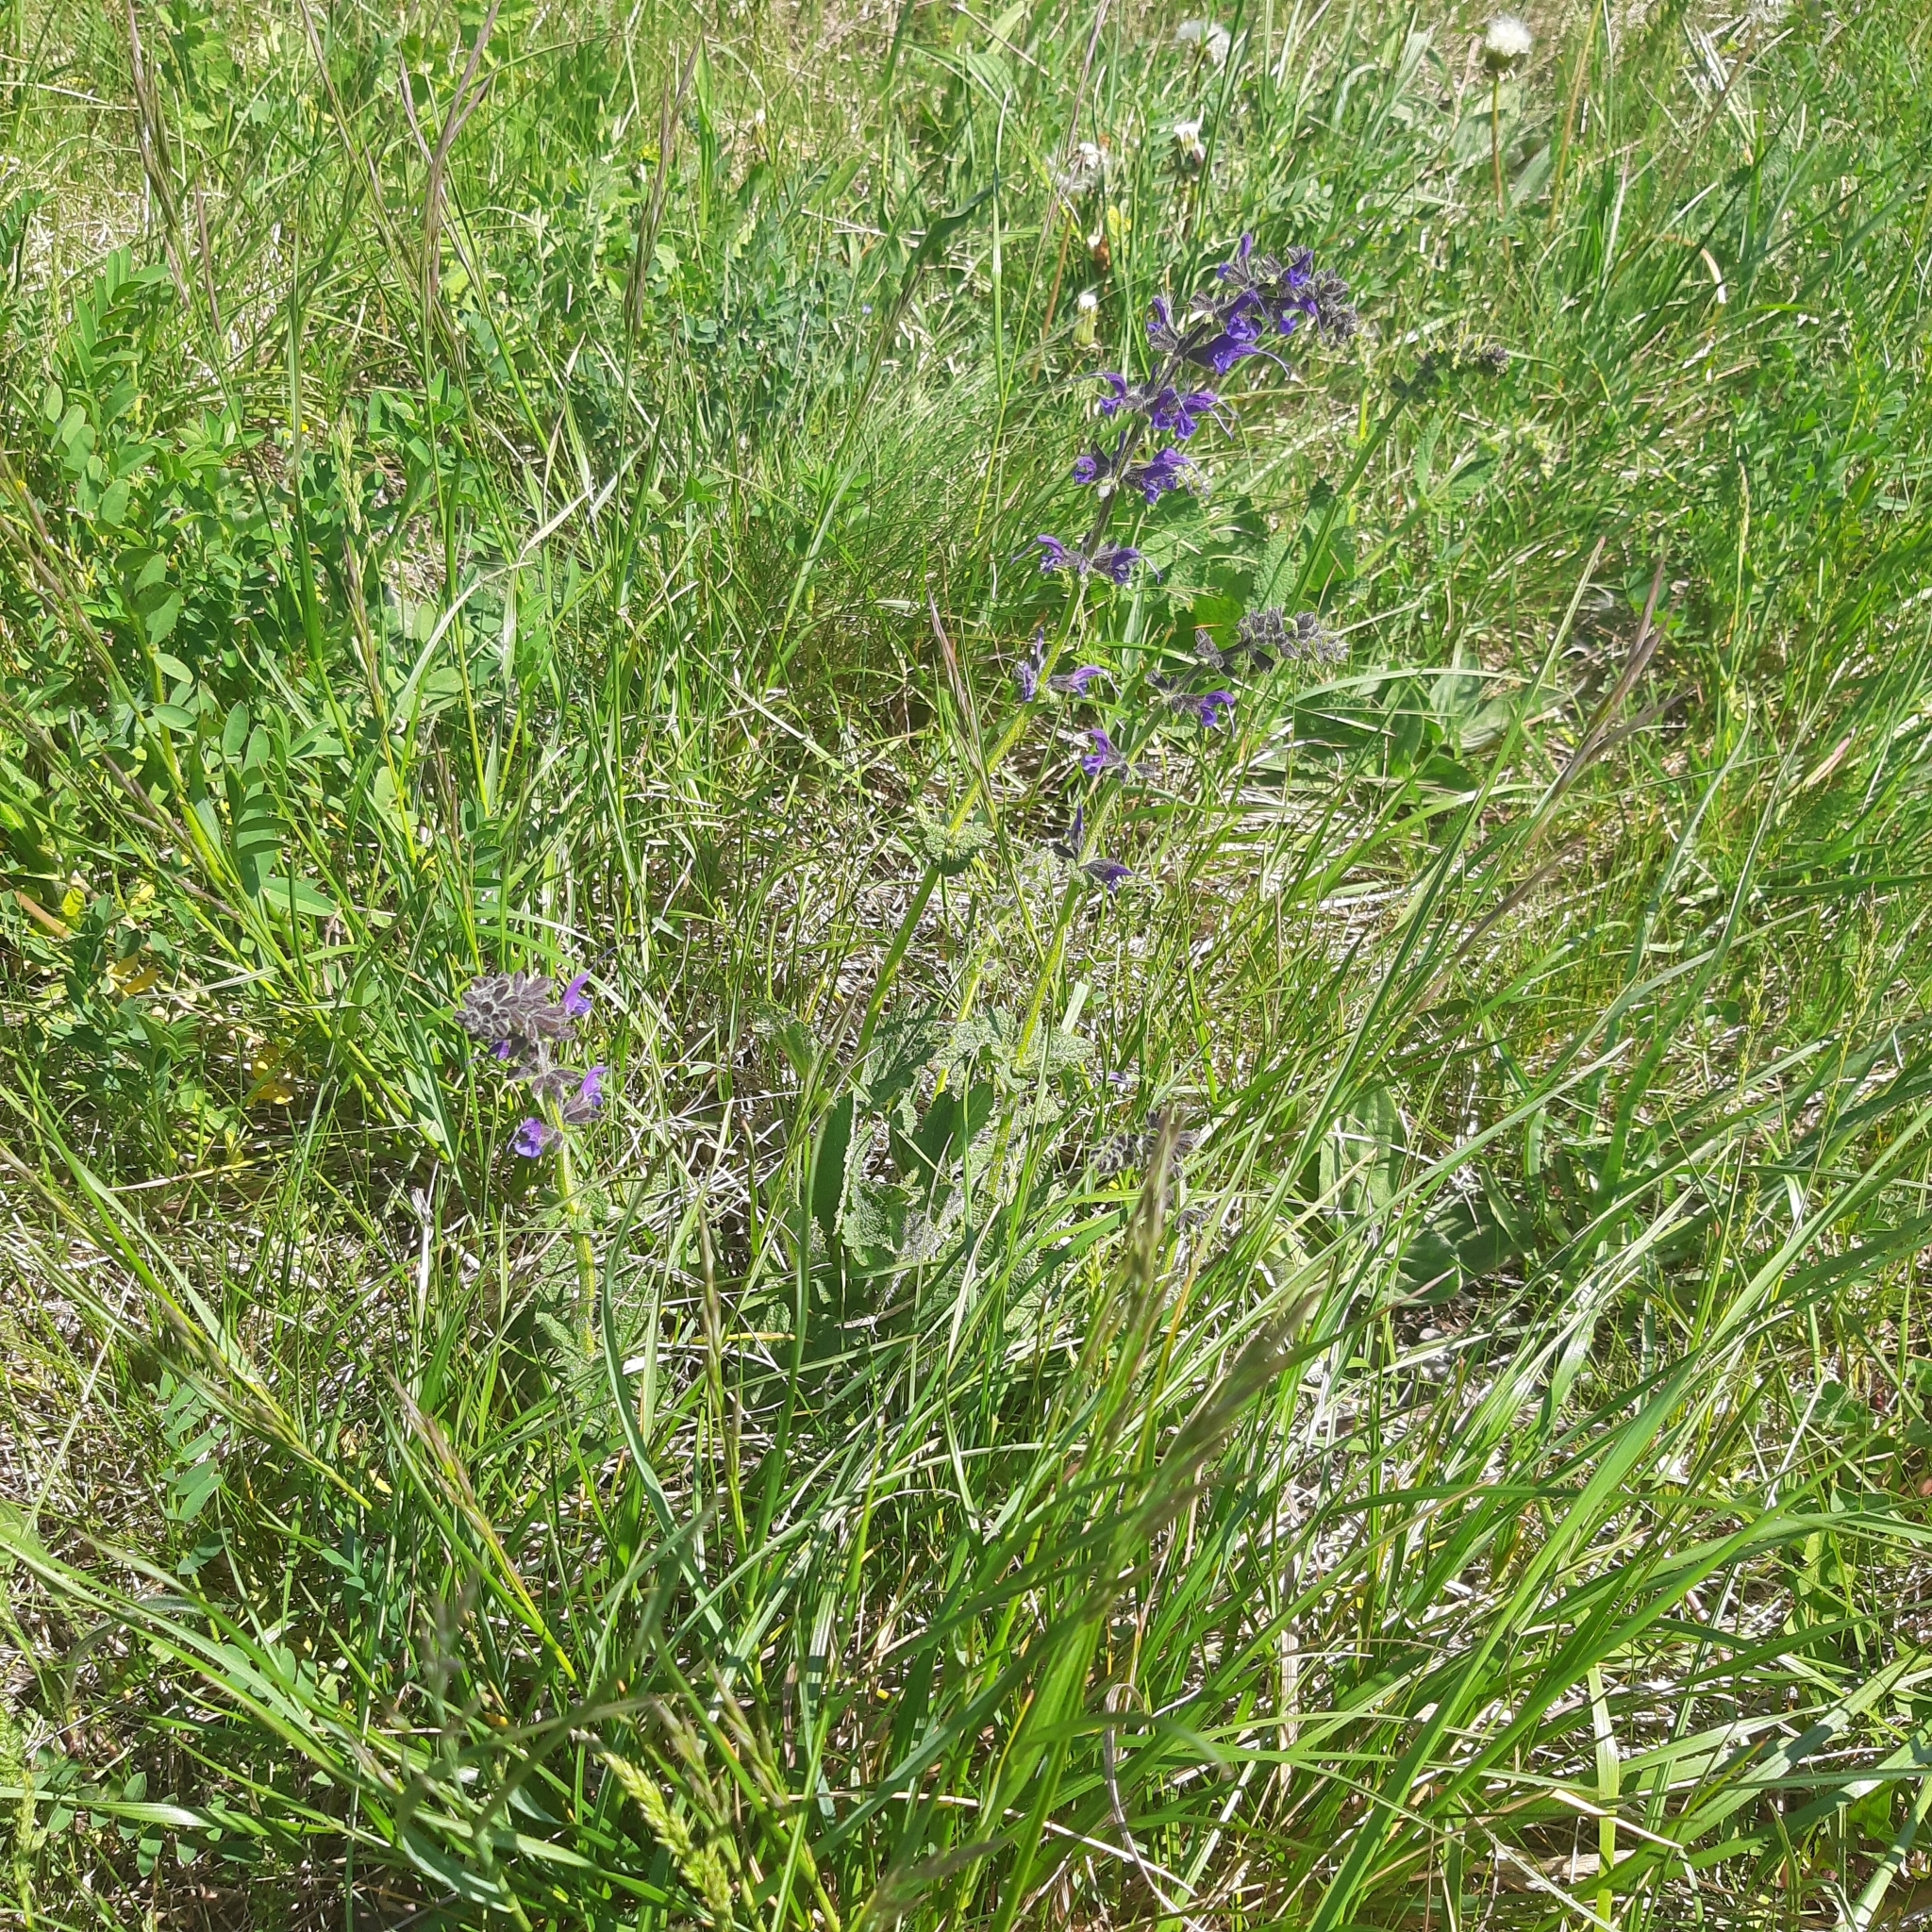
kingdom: Plantae
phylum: Tracheophyta
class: Magnoliopsida
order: Lamiales
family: Lamiaceae
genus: Salvia
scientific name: Salvia pratensis
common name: Meadow sage
